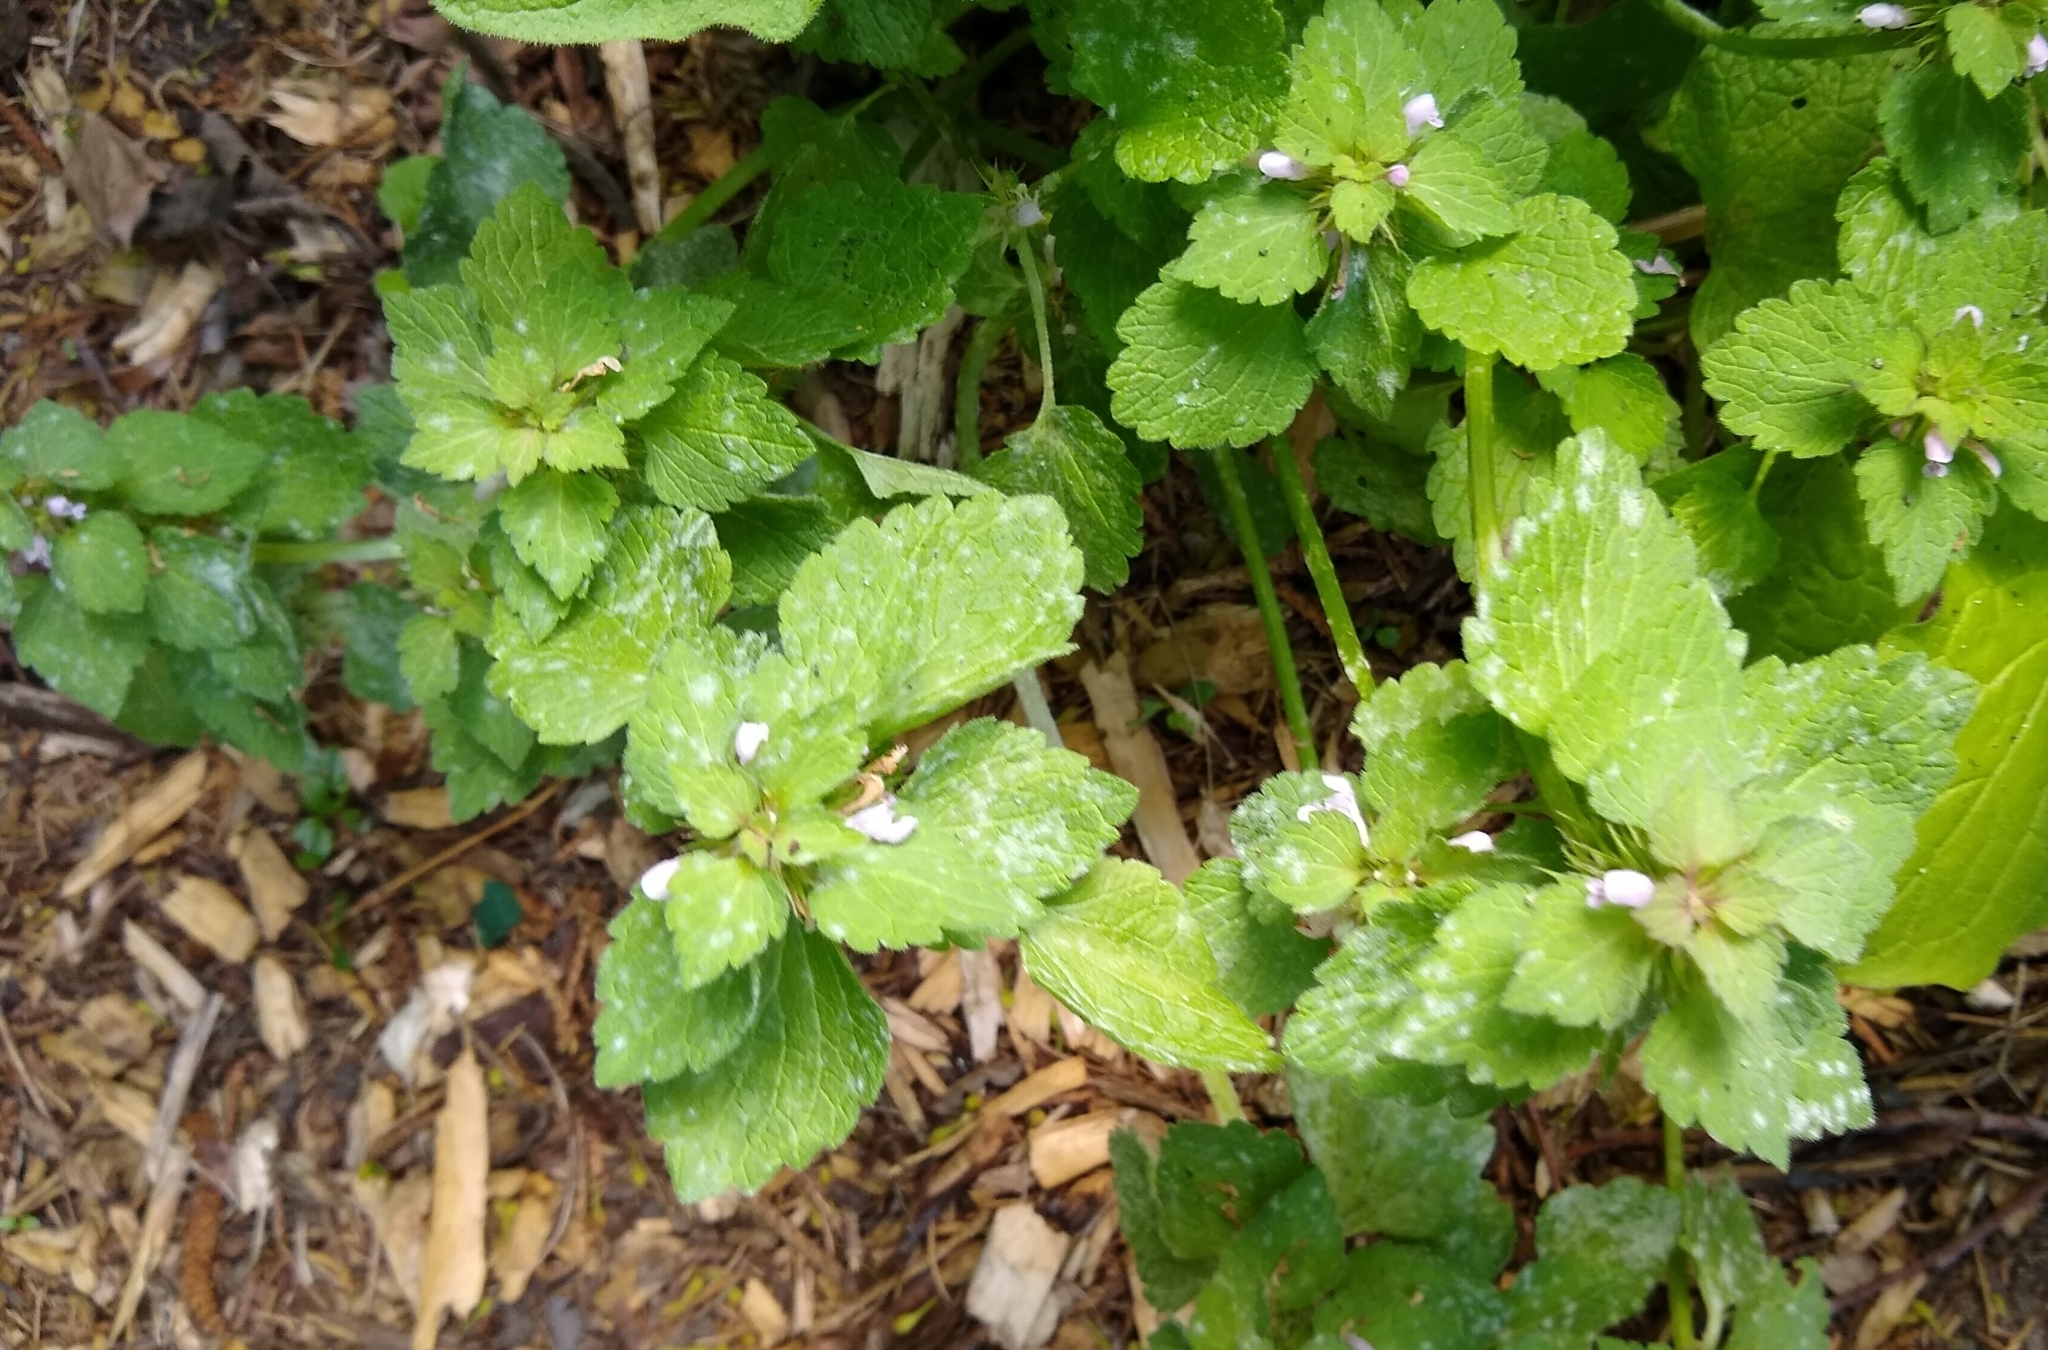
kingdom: Plantae
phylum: Tracheophyta
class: Magnoliopsida
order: Lamiales
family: Lamiaceae
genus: Lamium
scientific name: Lamium purpureum
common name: Red dead-nettle
